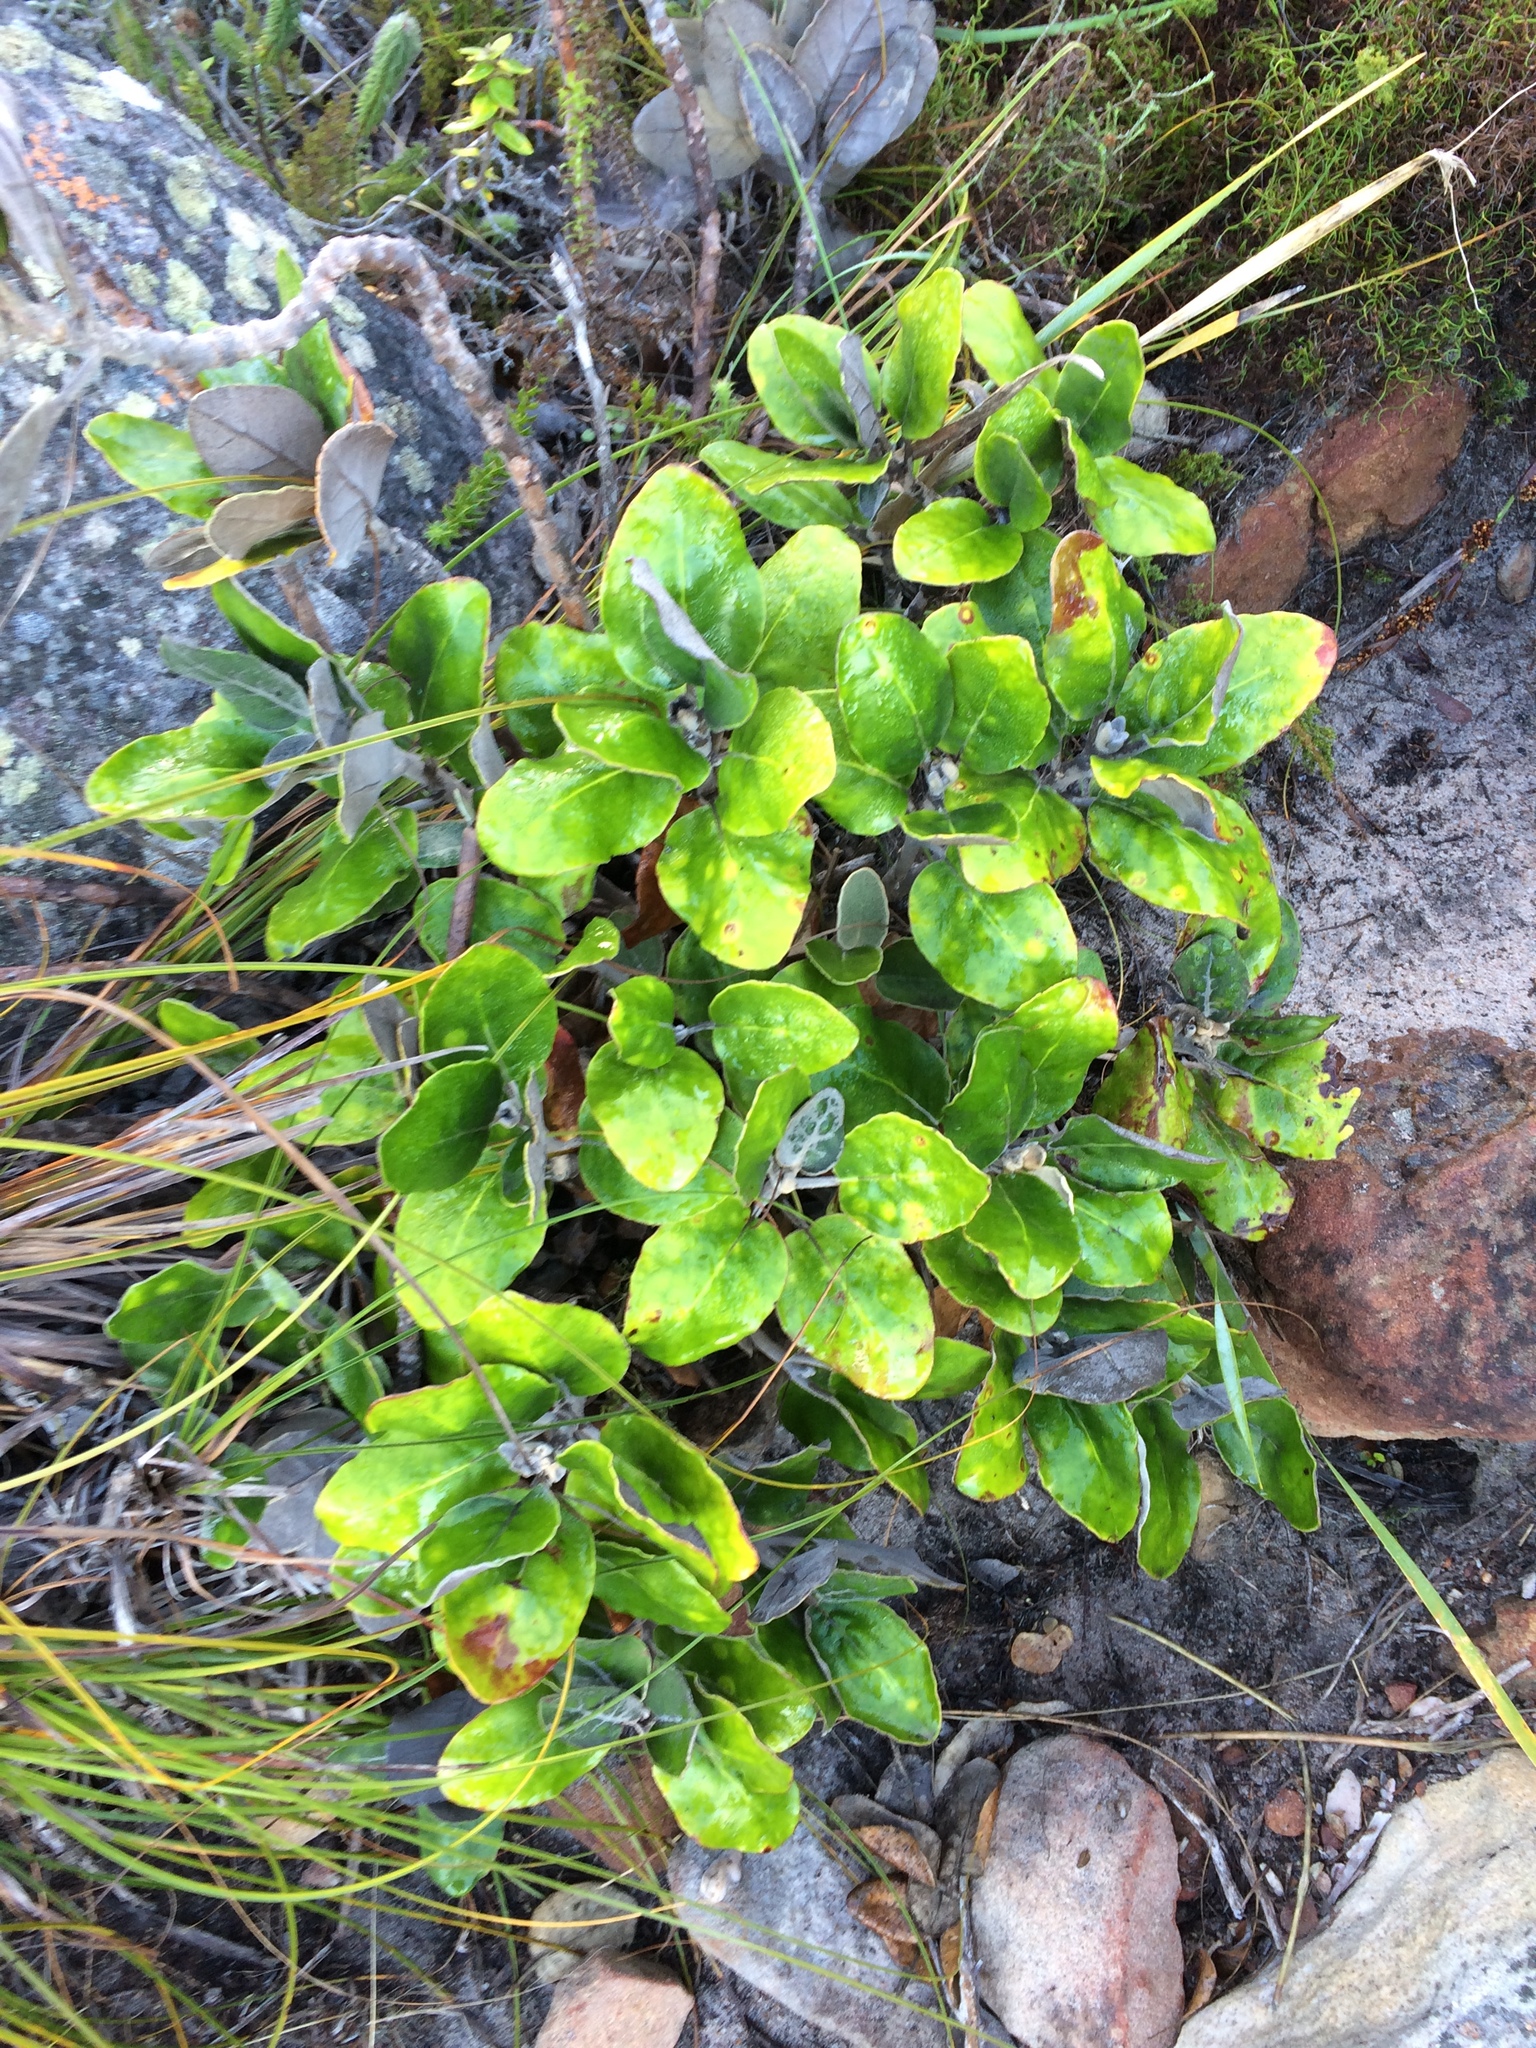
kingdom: Plantae
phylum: Tracheophyta
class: Magnoliopsida
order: Asterales
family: Asteraceae
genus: Capelio
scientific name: Capelio tabularis
